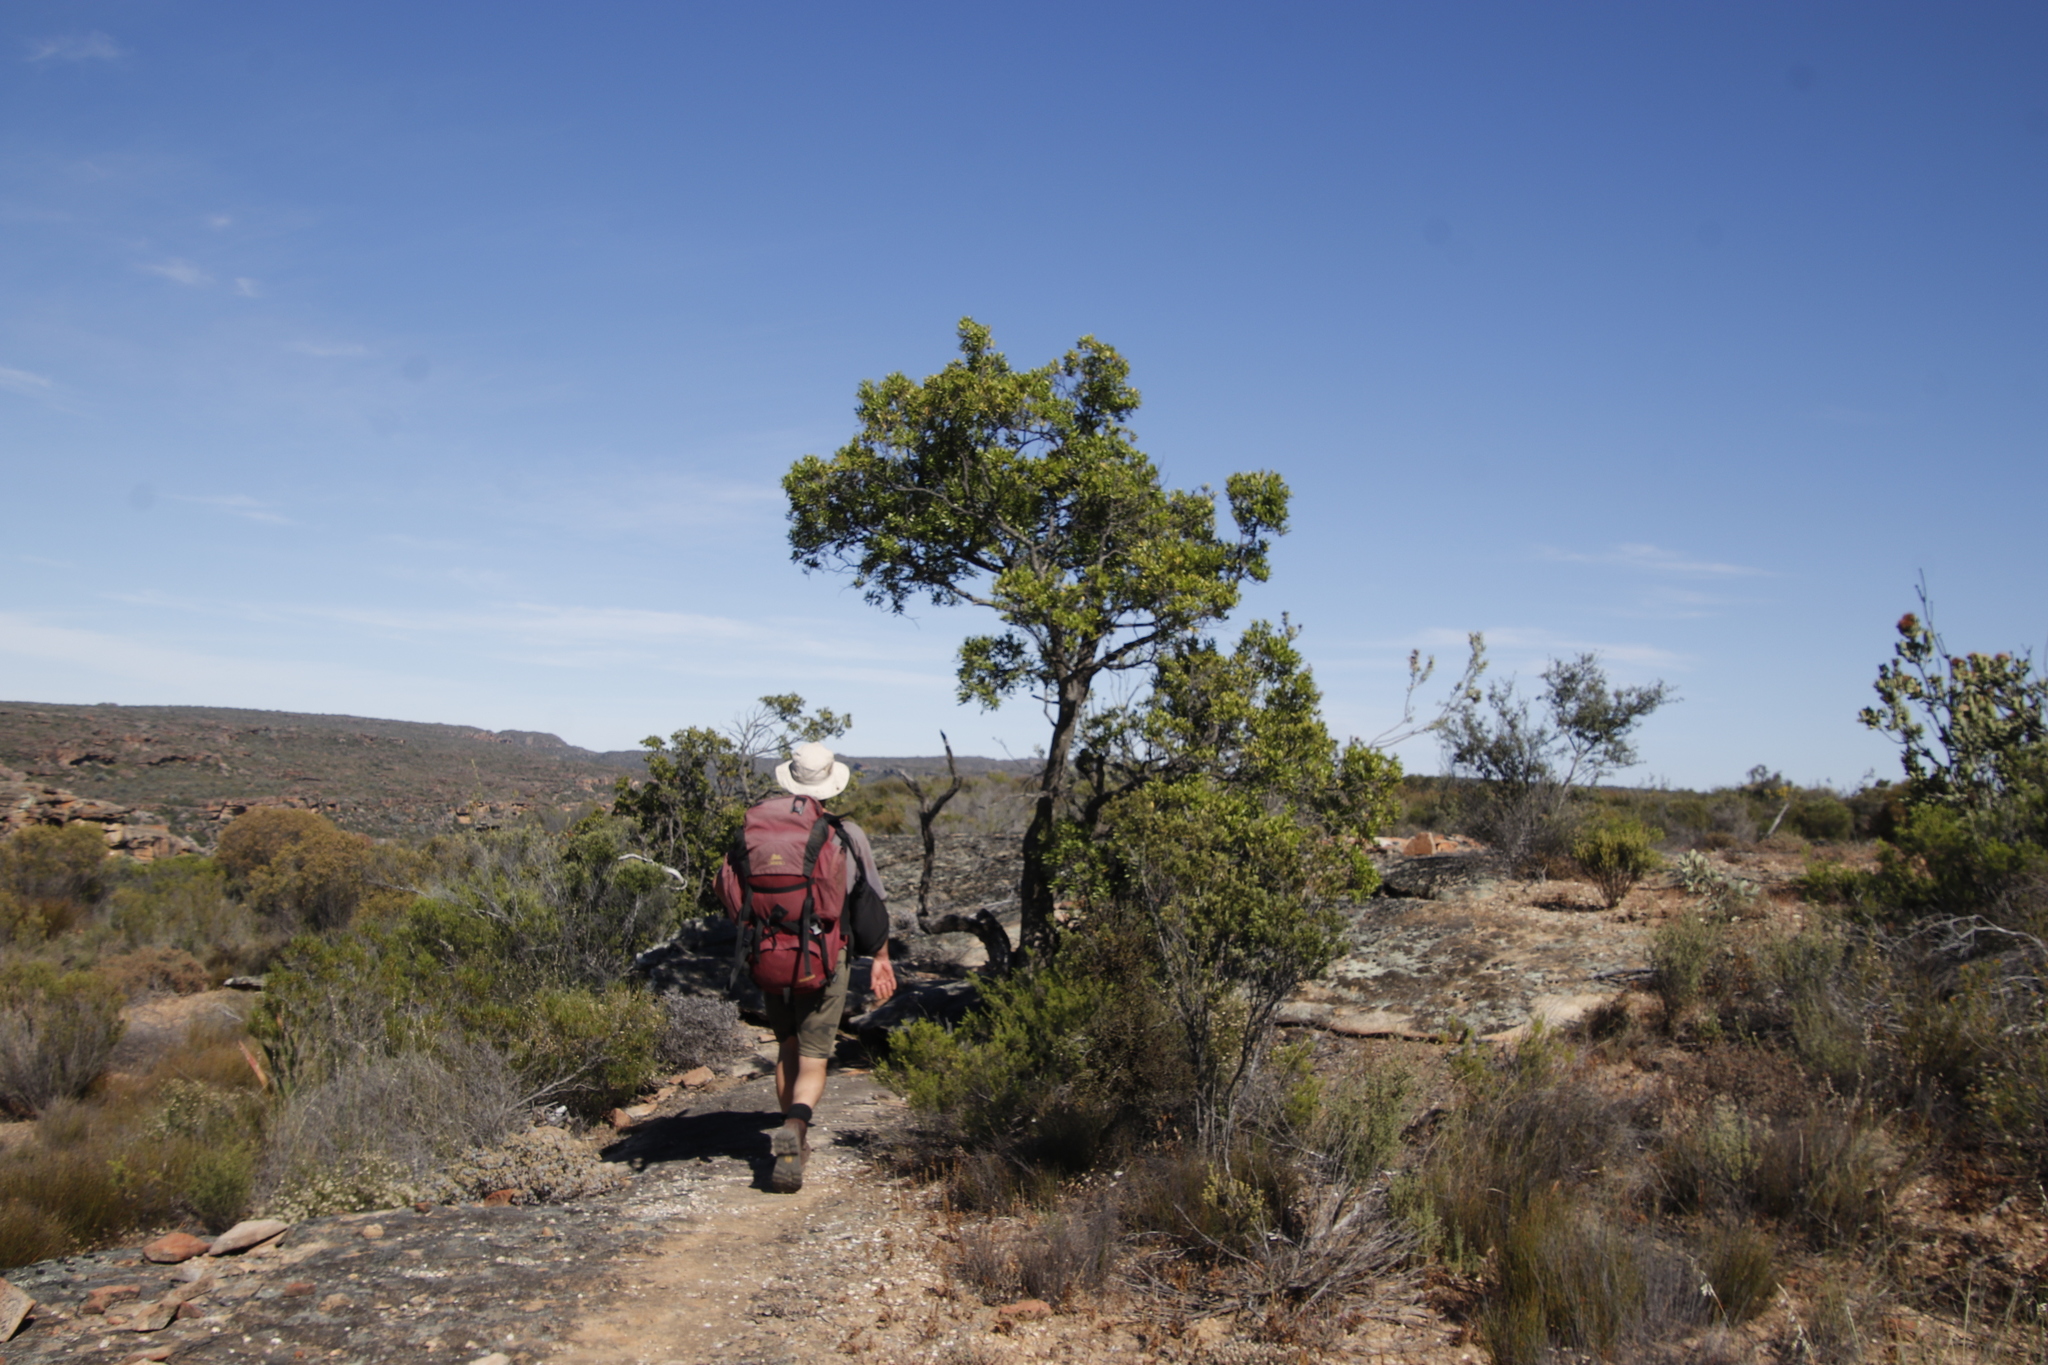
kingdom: Plantae
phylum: Tracheophyta
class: Magnoliopsida
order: Celastrales
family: Celastraceae
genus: Gymnosporia
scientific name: Gymnosporia laurina
